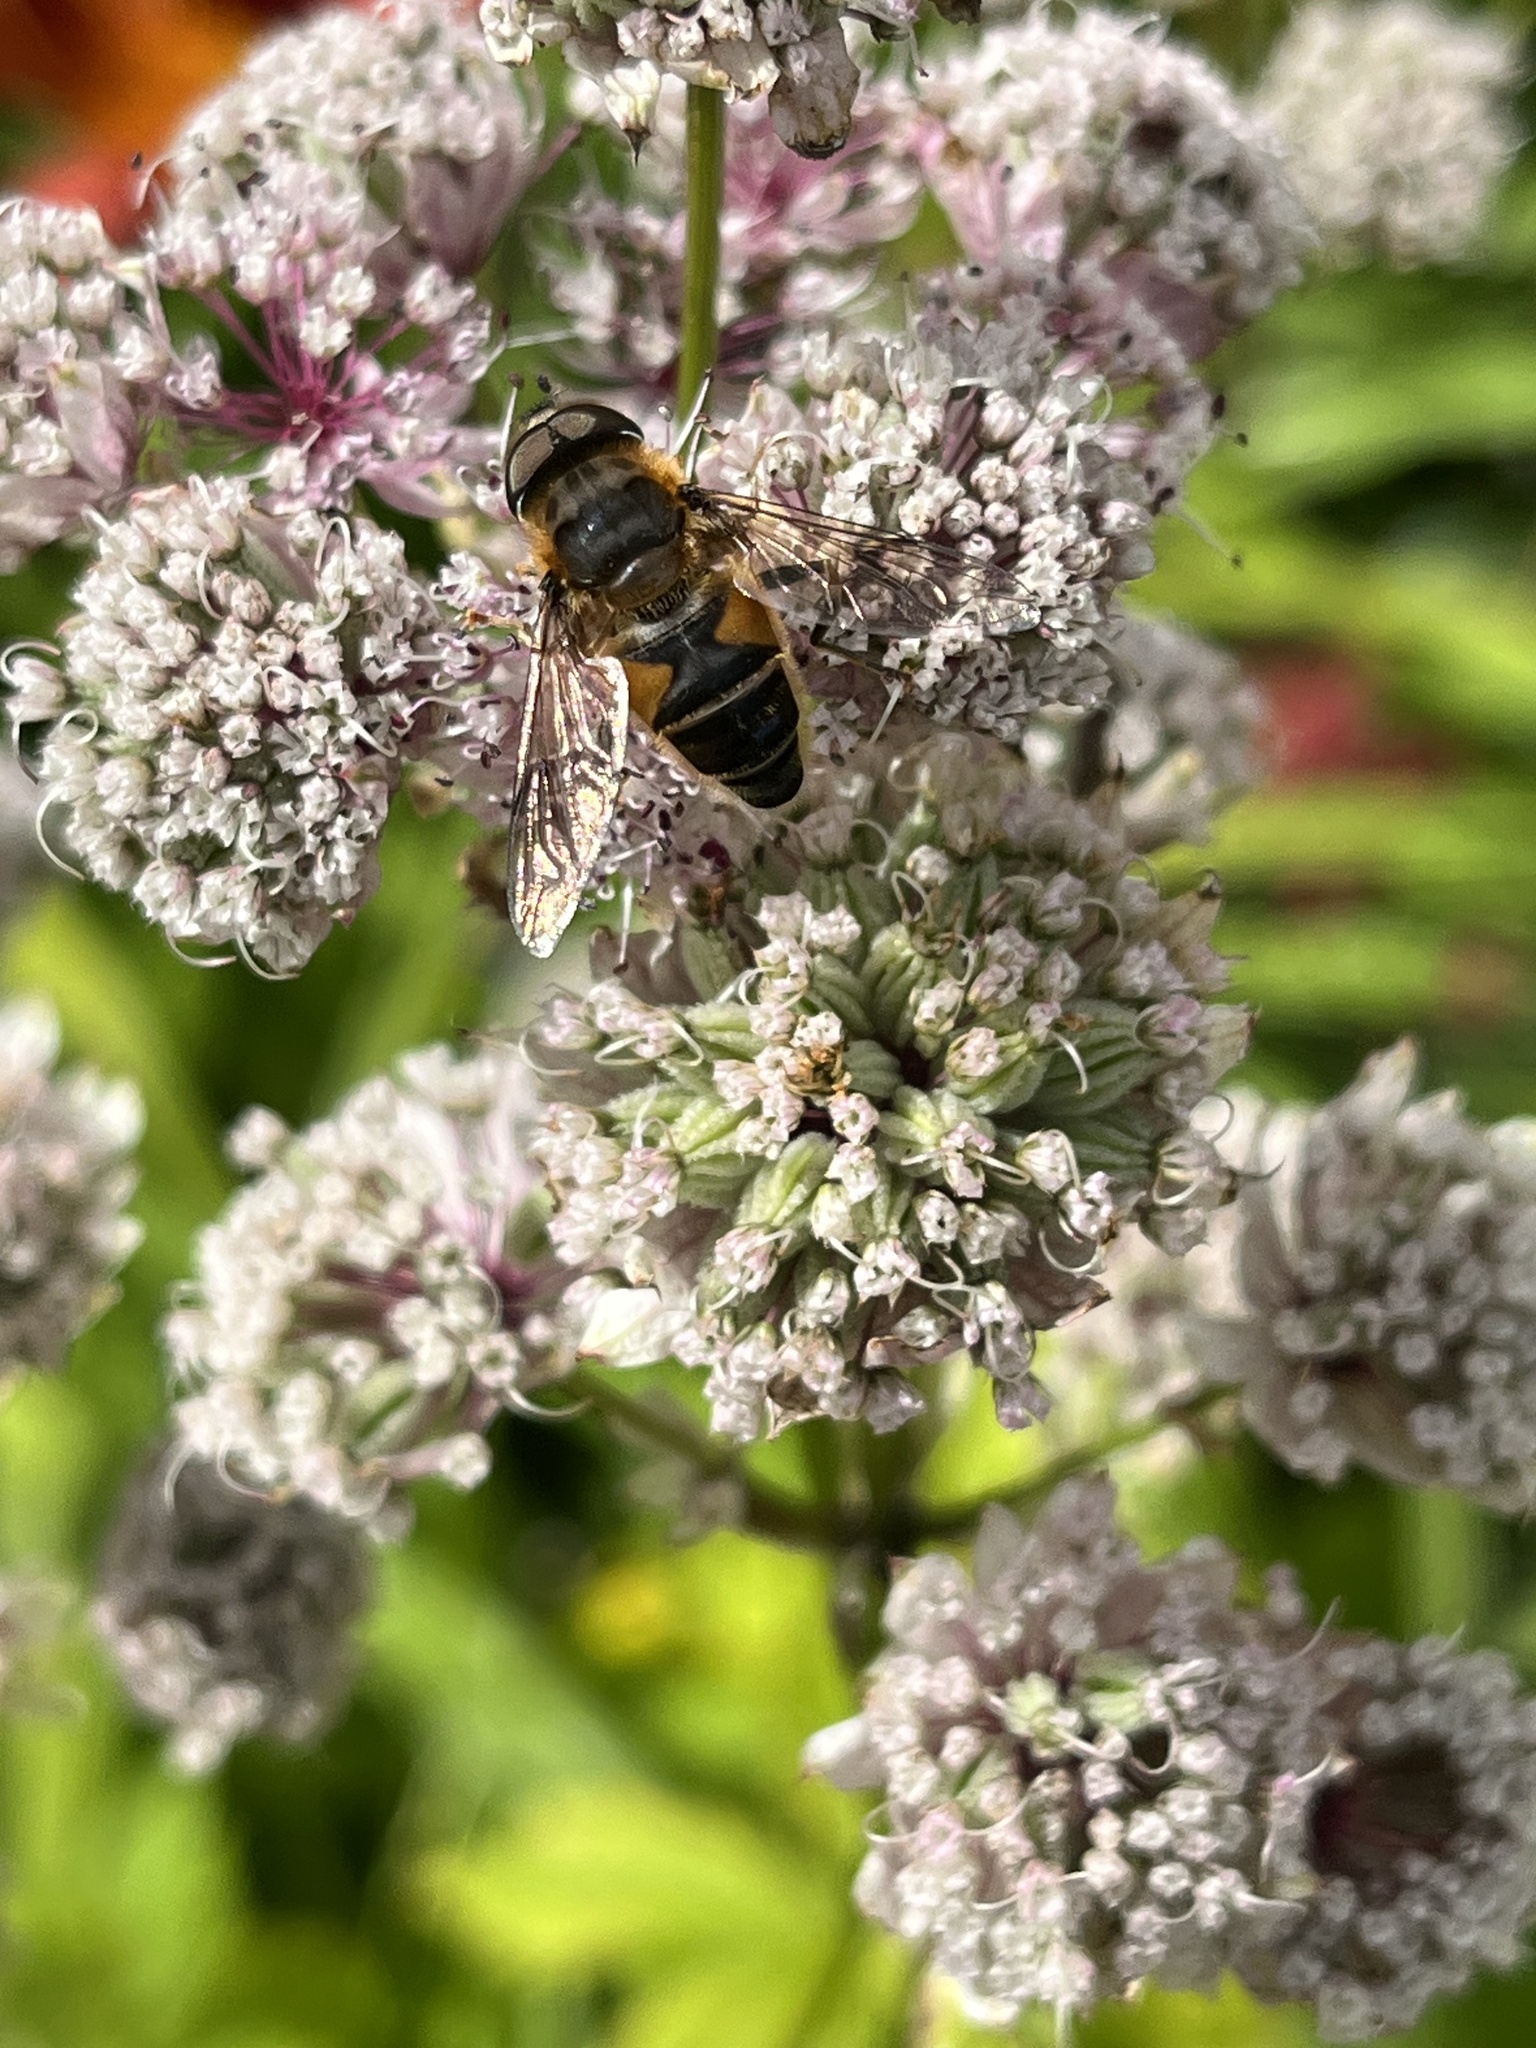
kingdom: Animalia
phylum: Arthropoda
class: Insecta
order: Diptera
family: Syrphidae
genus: Eristalis
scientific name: Eristalis pertinax
